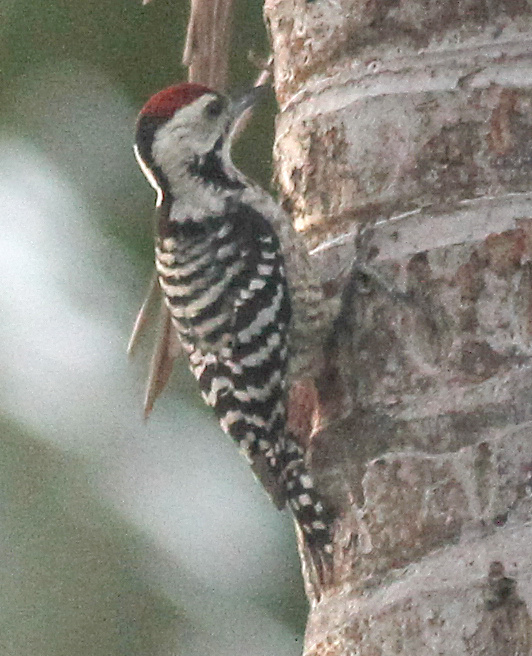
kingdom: Animalia
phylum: Chordata
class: Aves
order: Piciformes
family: Picidae
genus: Dendrocopos
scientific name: Dendrocopos analis
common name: Freckle-breasted woodpecker
